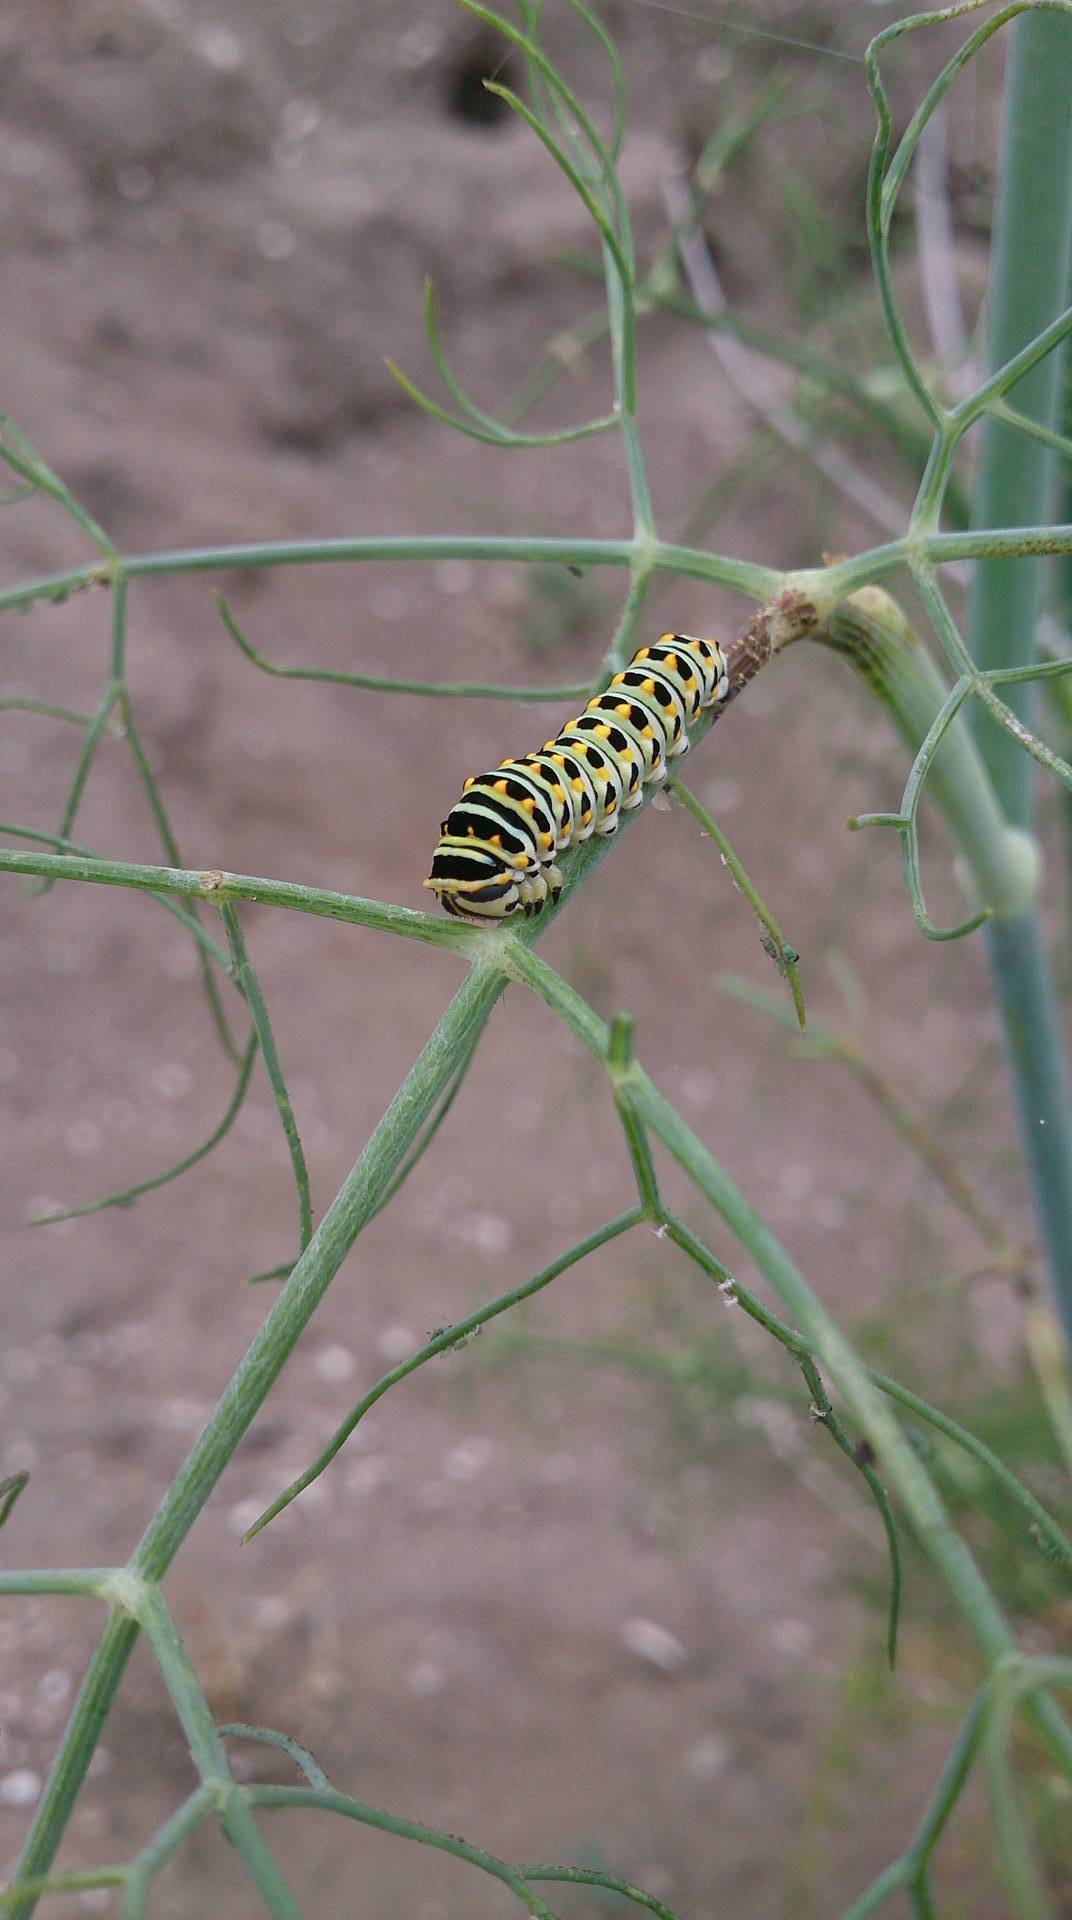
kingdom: Animalia
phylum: Arthropoda
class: Insecta
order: Lepidoptera
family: Papilionidae
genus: Papilio
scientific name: Papilio zelicaon
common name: Anise swallowtail
